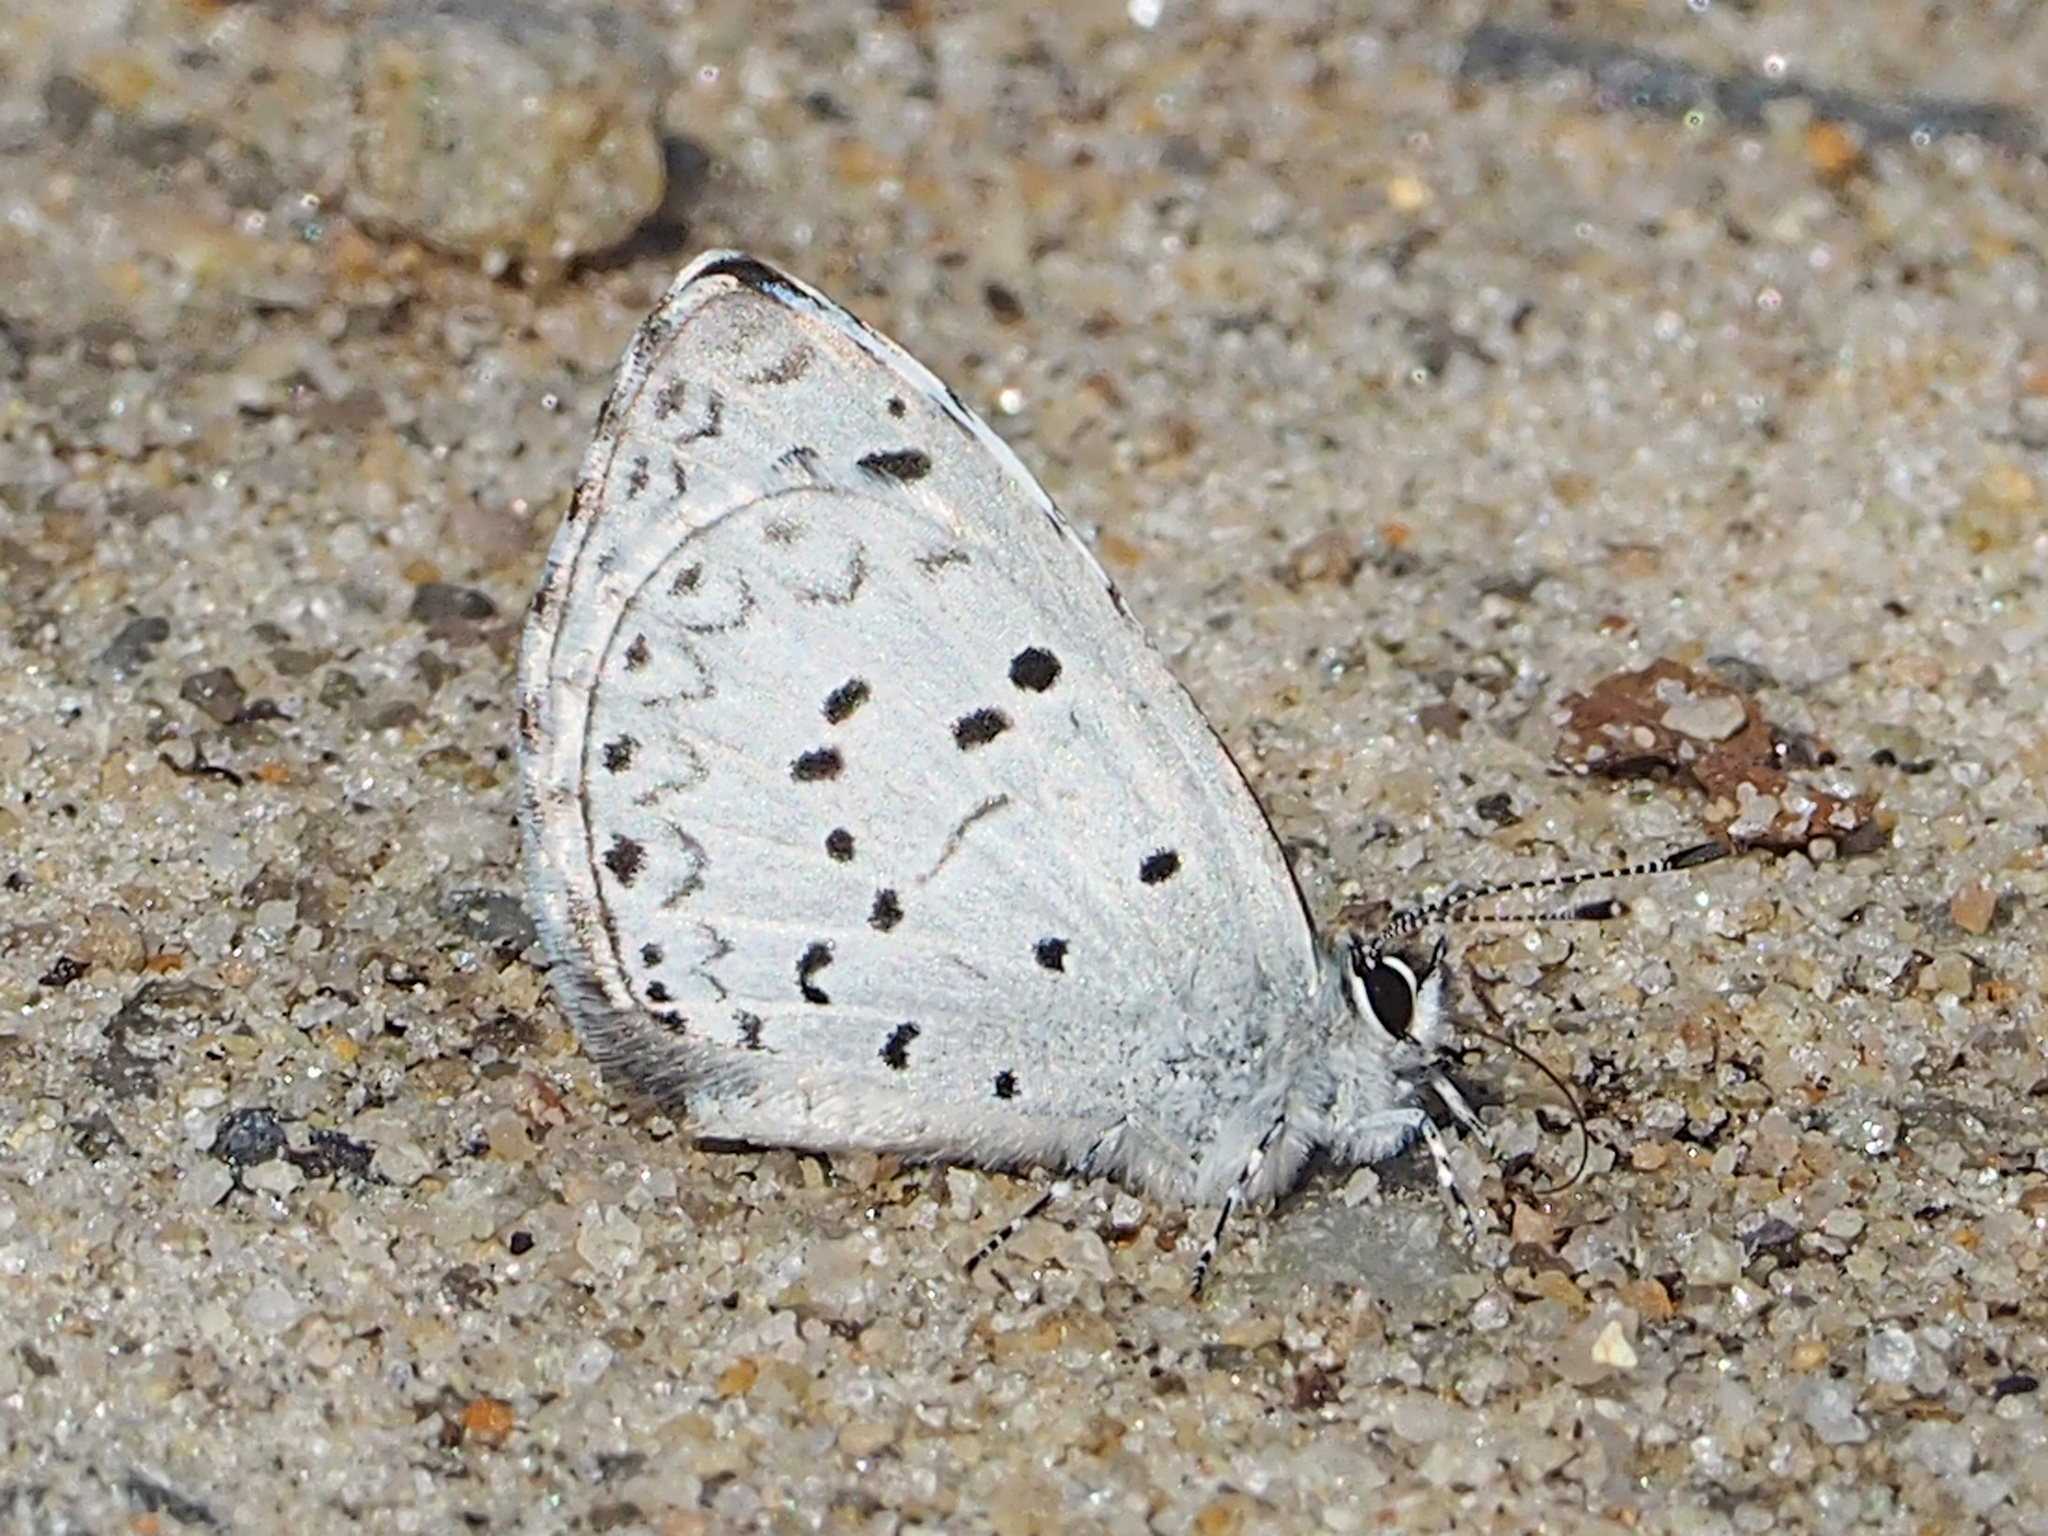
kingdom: Animalia
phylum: Arthropoda
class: Insecta
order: Lepidoptera
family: Lycaenidae
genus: Cyaniris
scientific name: Cyaniris neglecta
